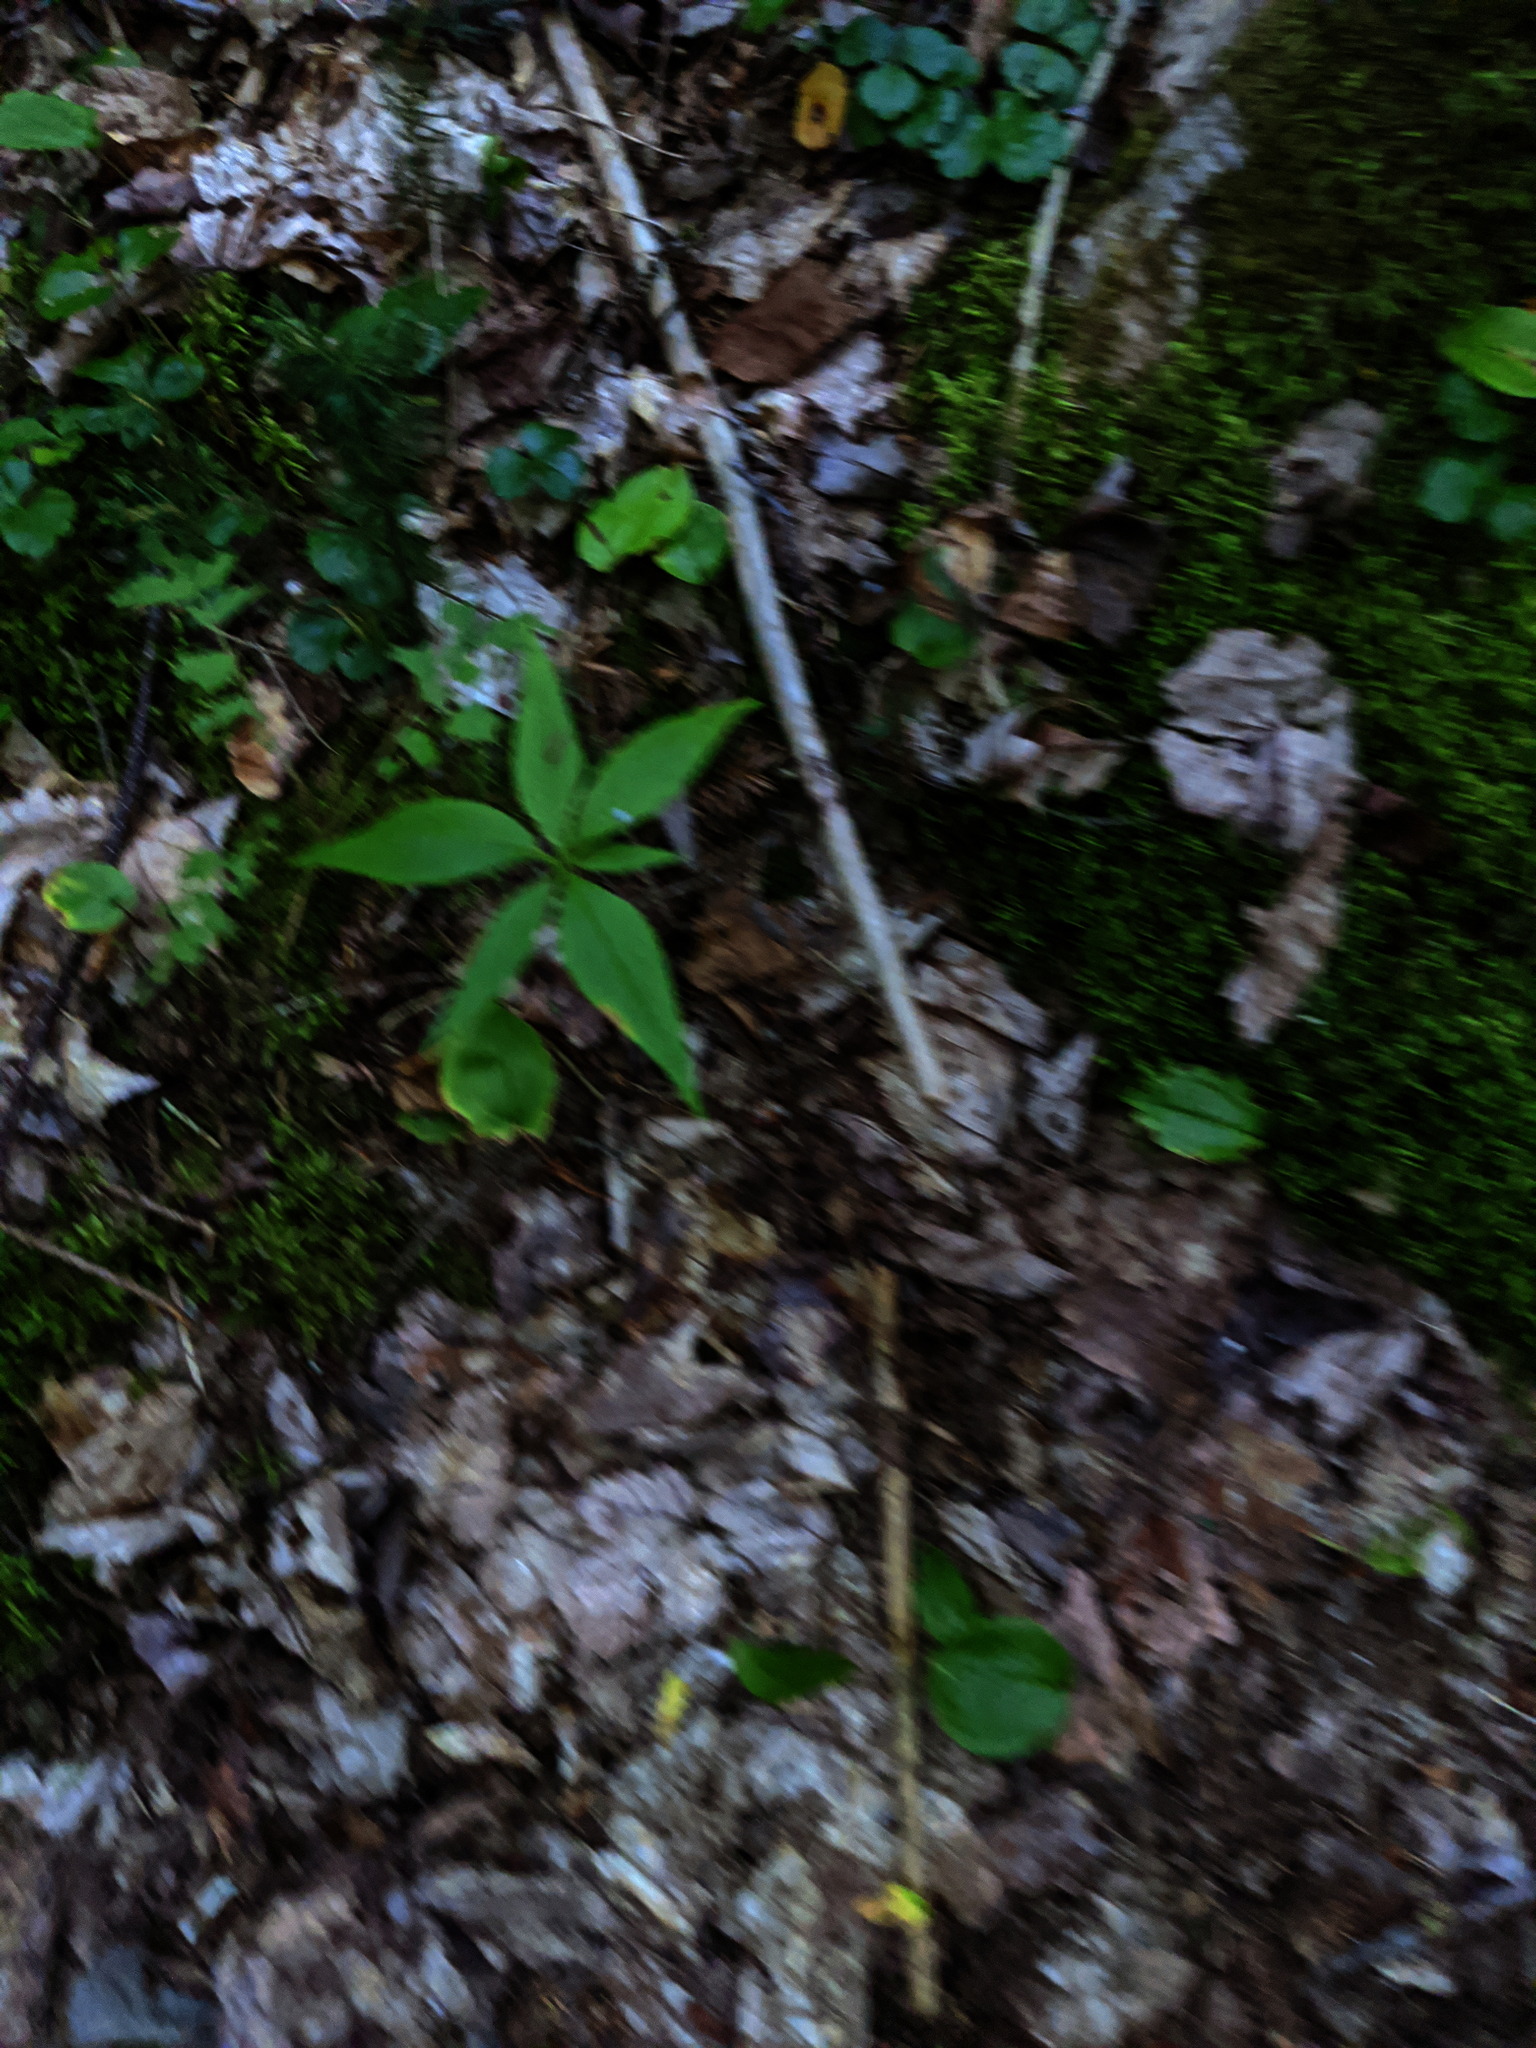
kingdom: Plantae
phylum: Tracheophyta
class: Liliopsida
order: Asparagales
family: Asparagaceae
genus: Maianthemum
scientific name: Maianthemum canadense
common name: False lily-of-the-valley
